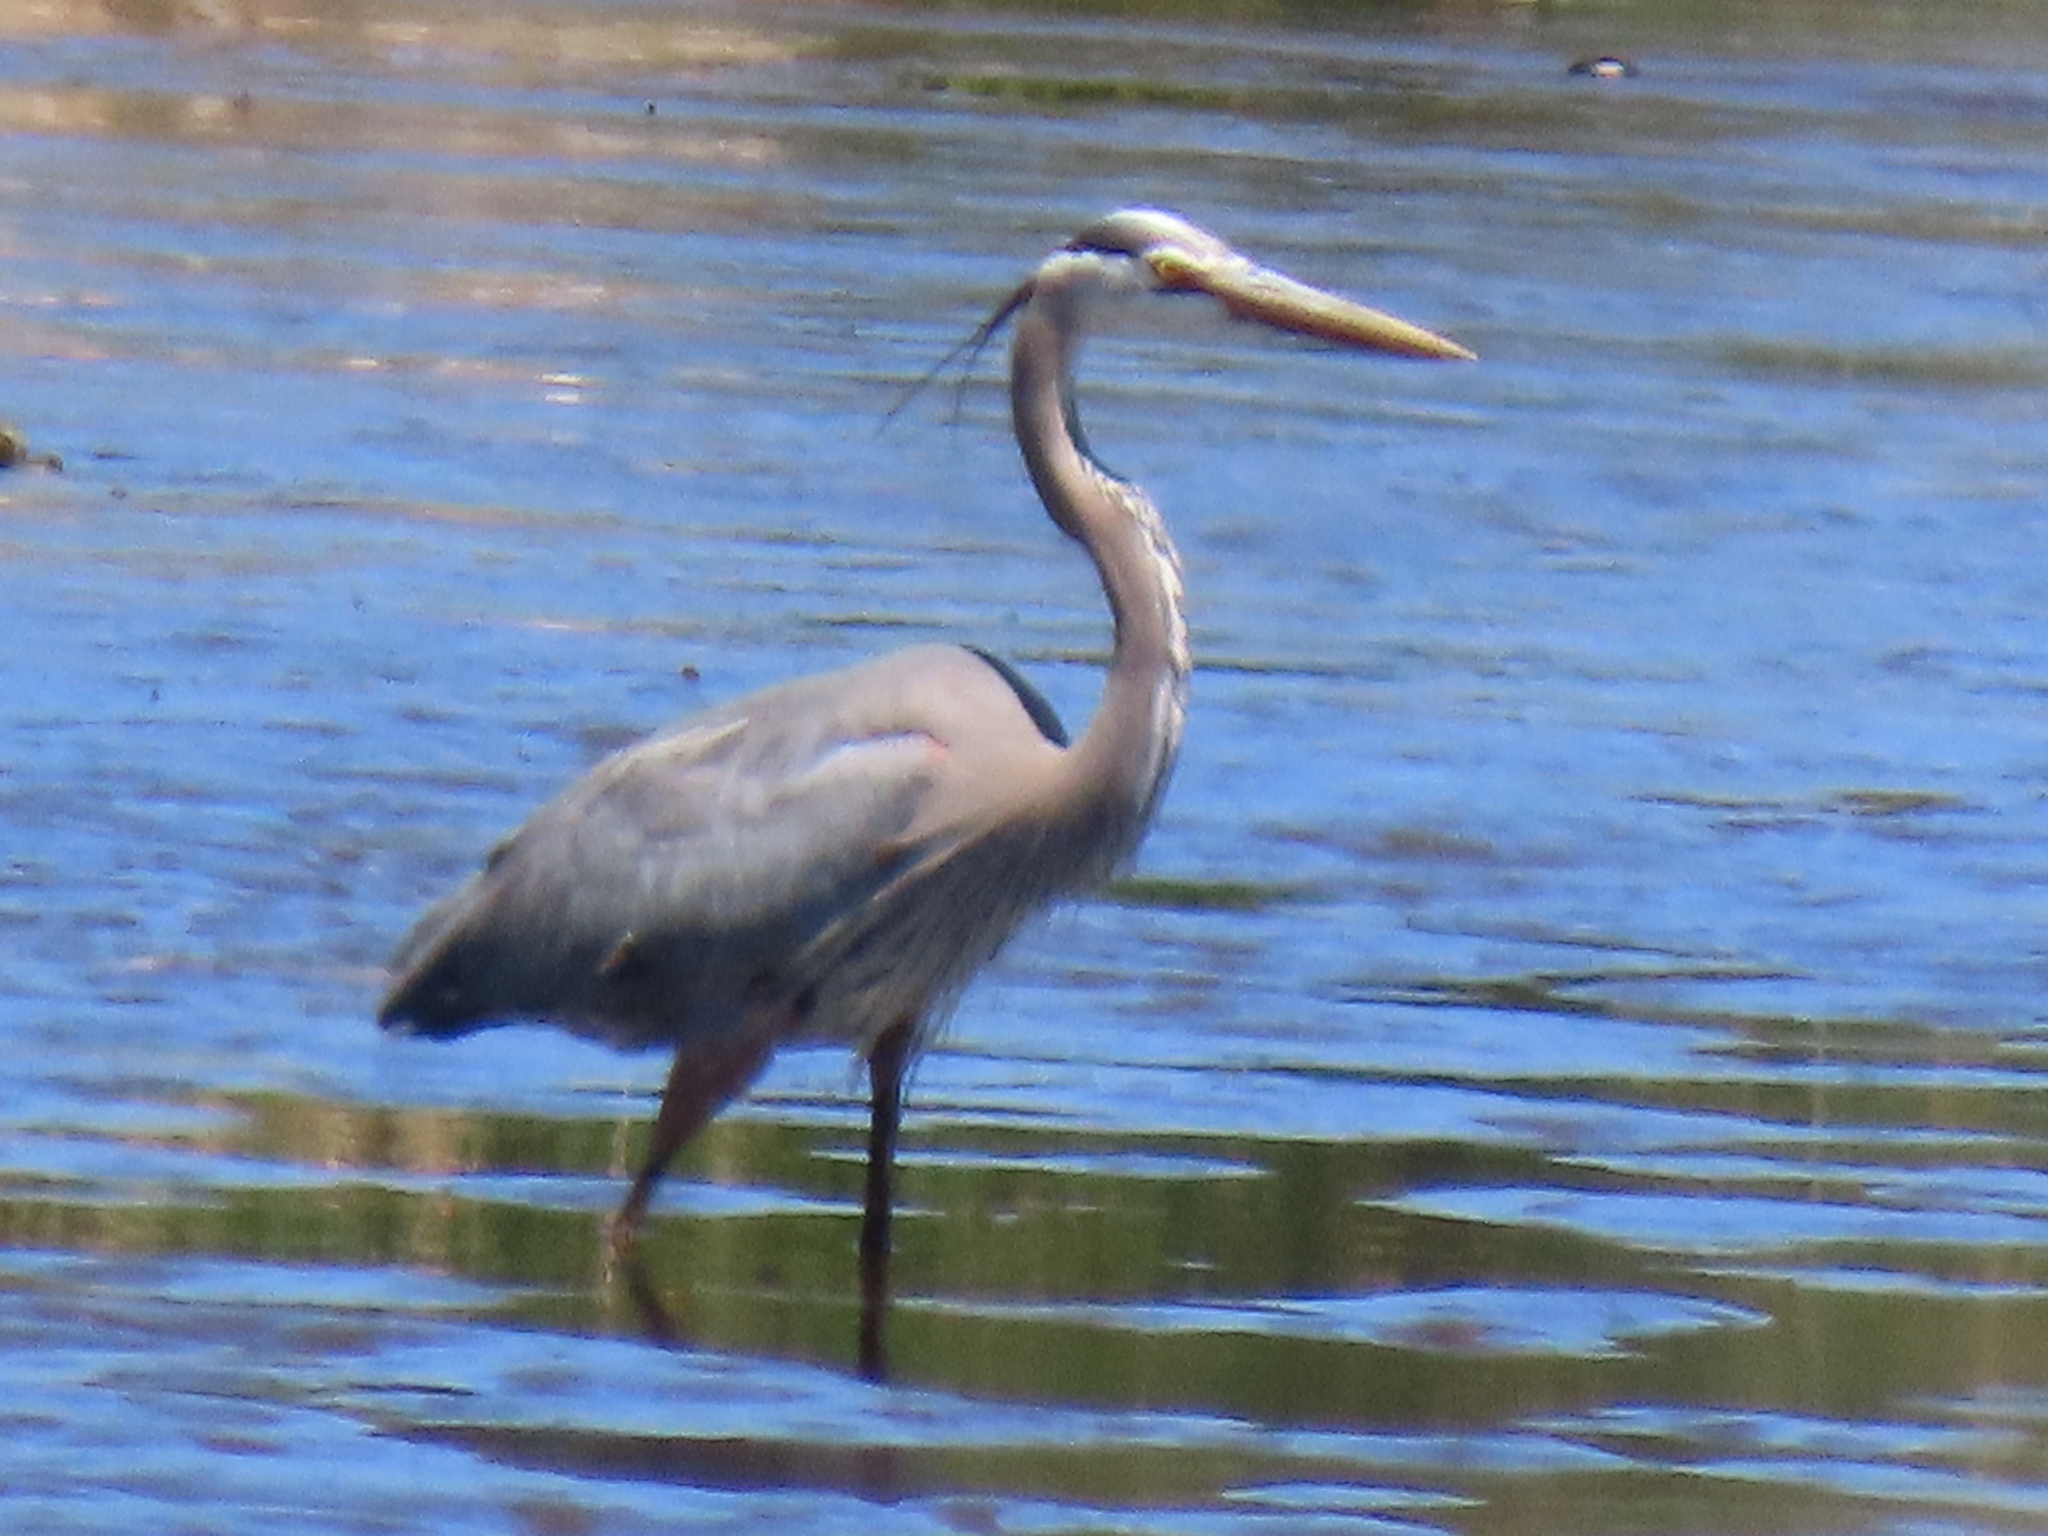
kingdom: Animalia
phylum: Chordata
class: Aves
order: Pelecaniformes
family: Ardeidae
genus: Ardea
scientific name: Ardea herodias
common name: Great blue heron
